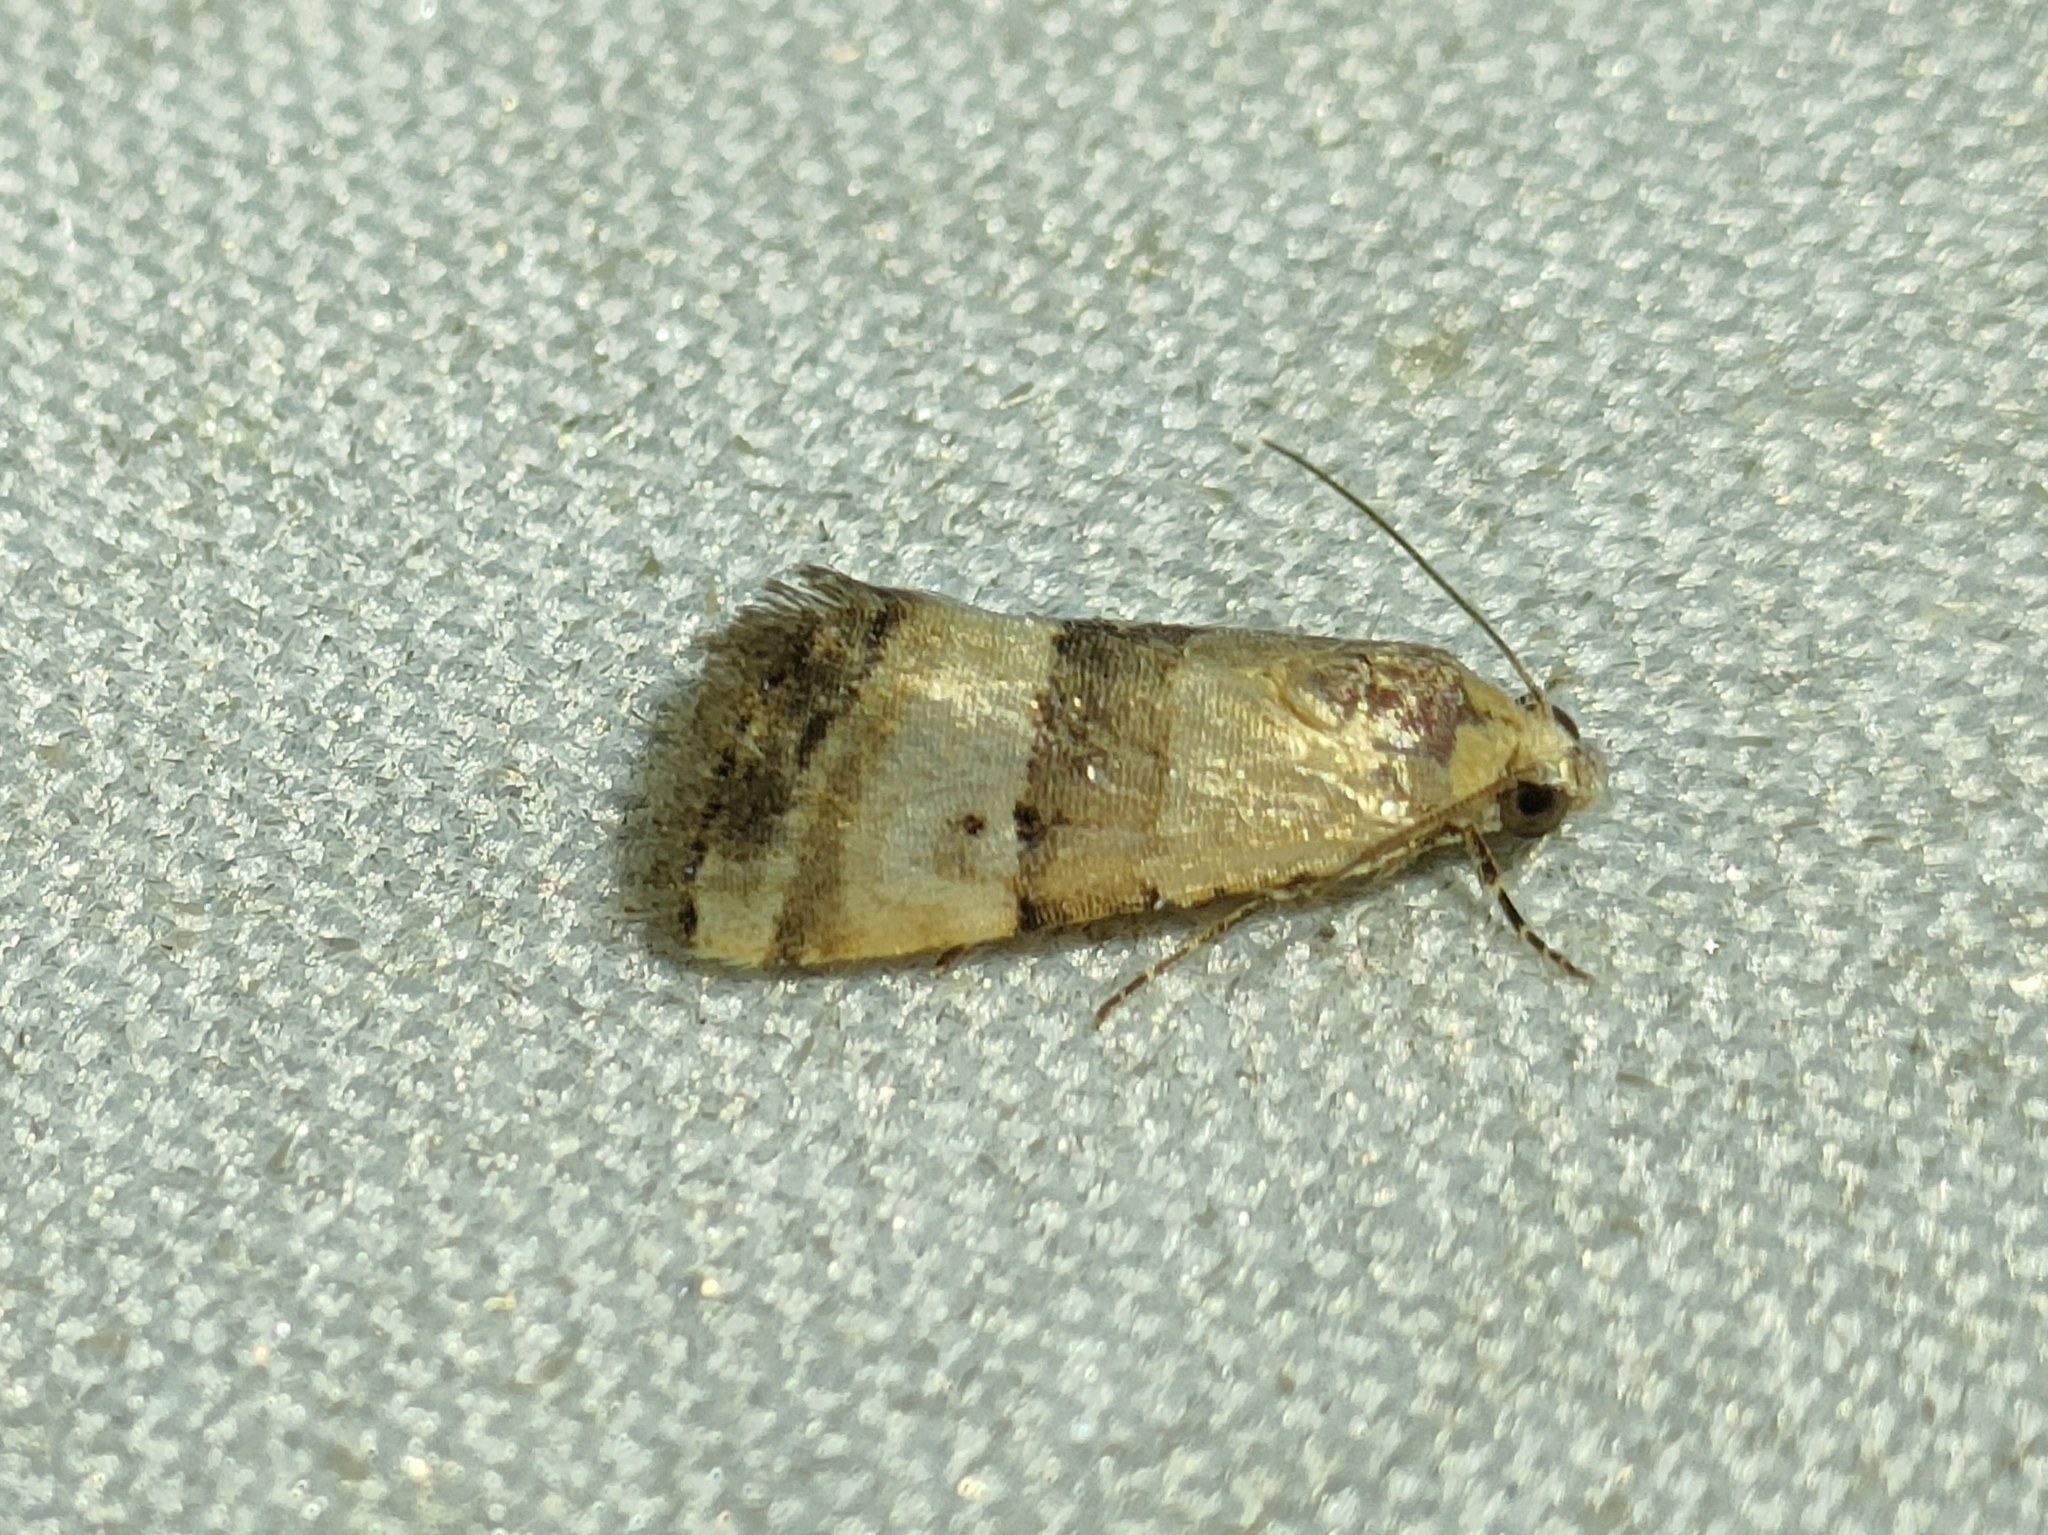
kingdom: Animalia
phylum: Arthropoda
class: Insecta
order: Lepidoptera
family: Noctuidae
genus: Pseudozarba
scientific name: Pseudozarba bipartita
